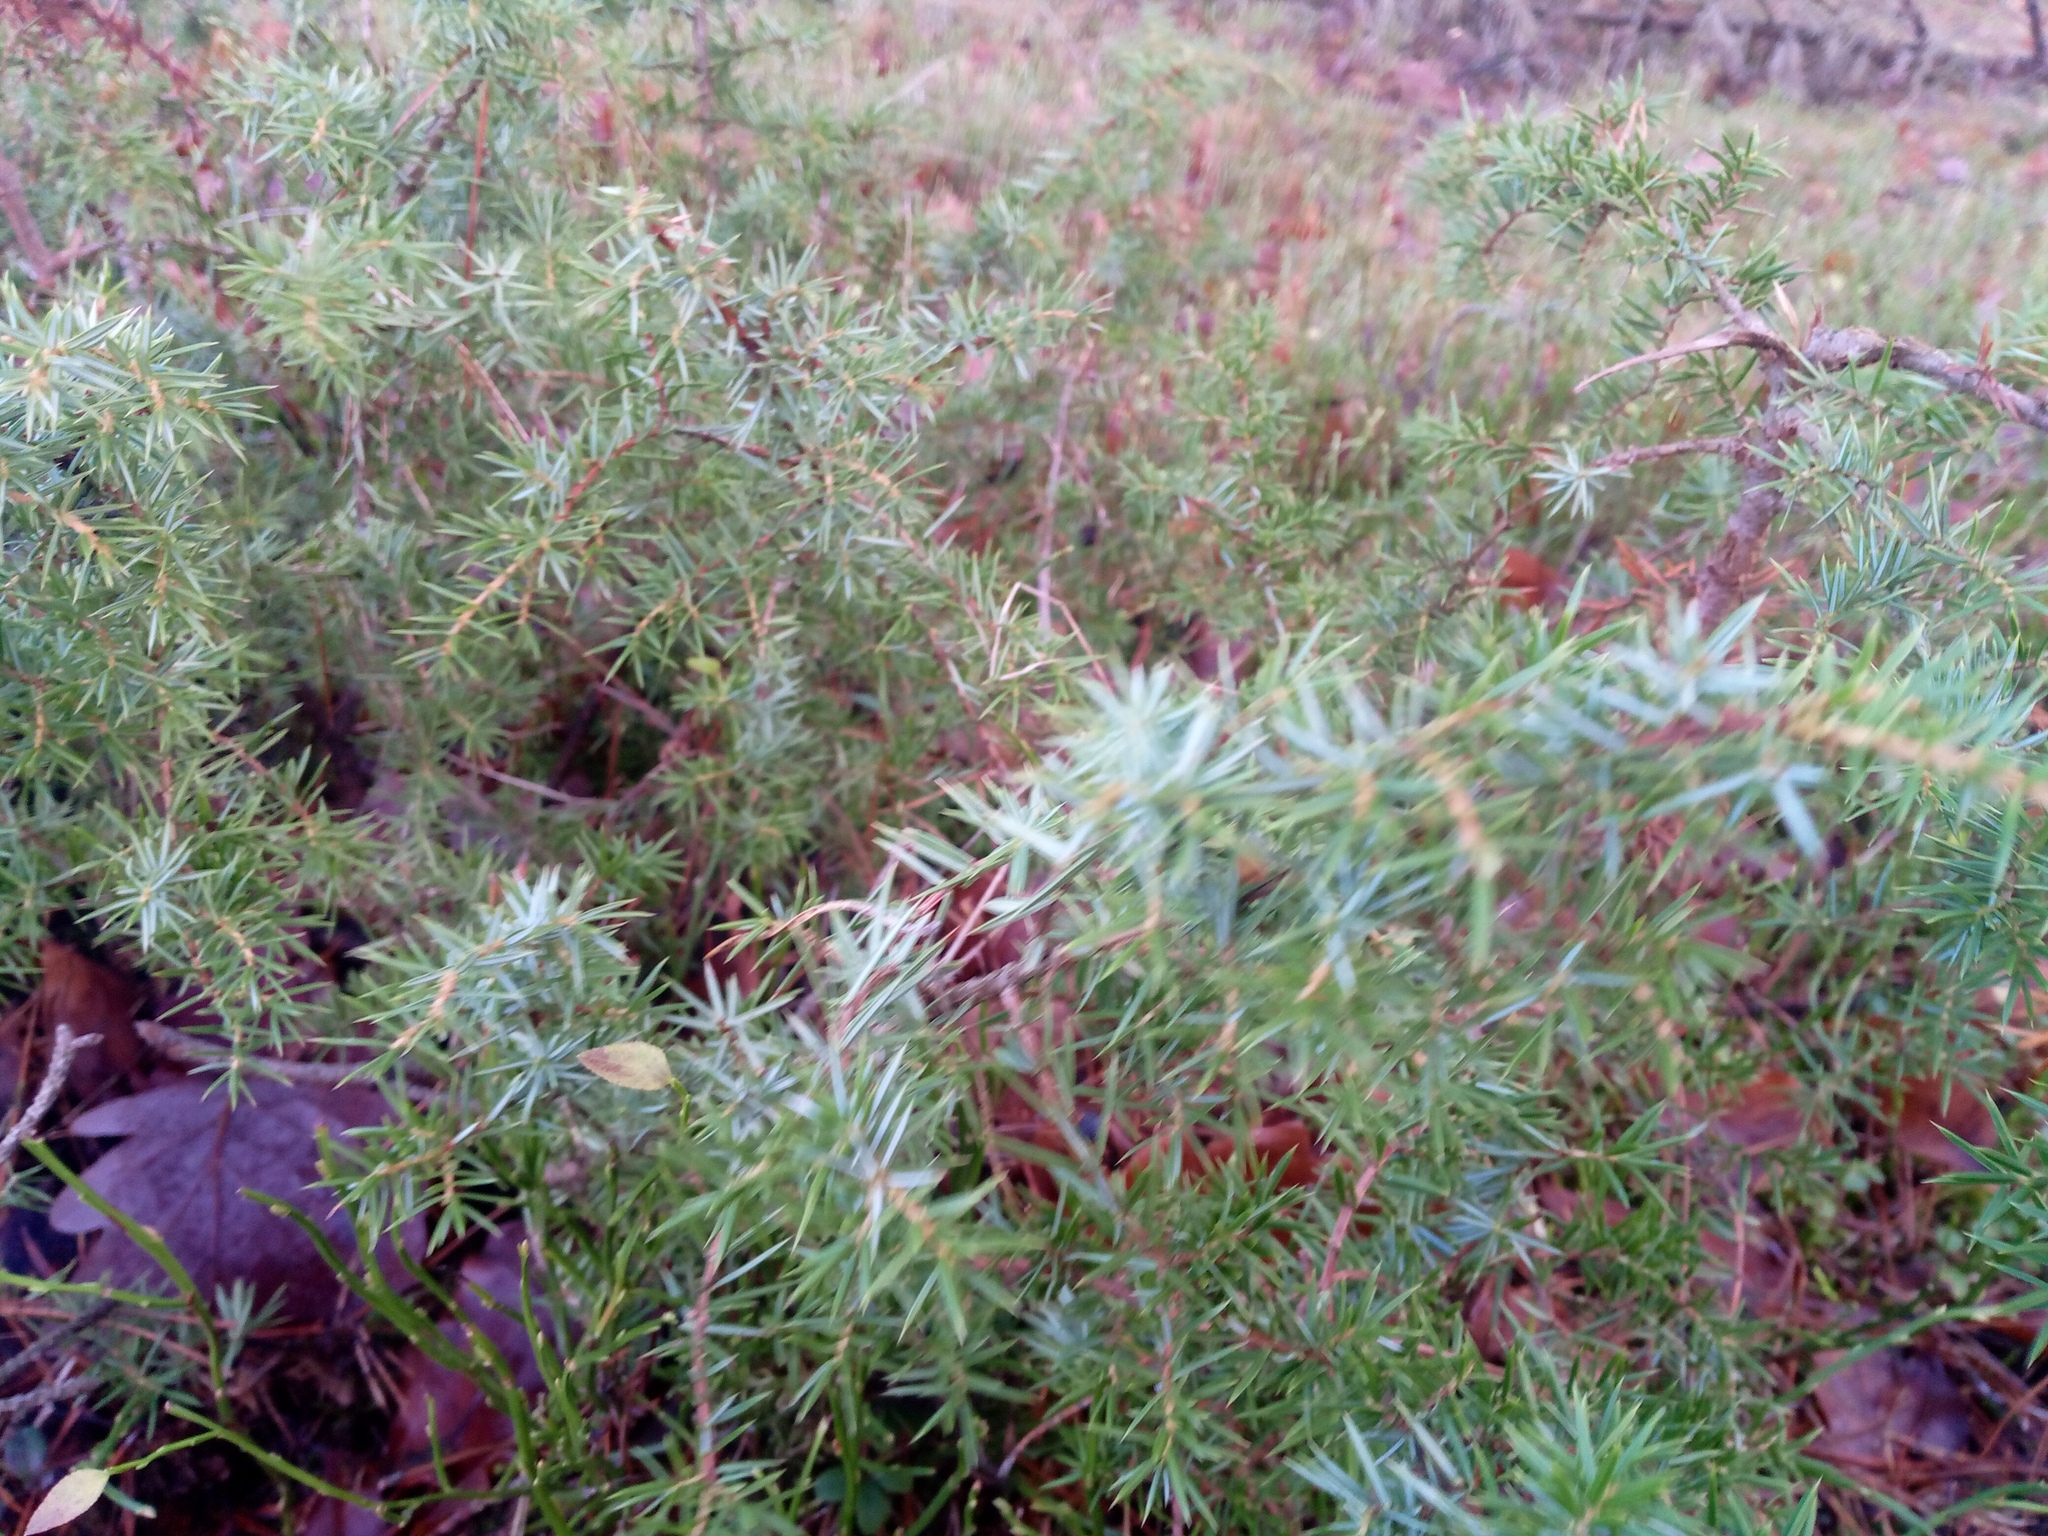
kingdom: Plantae
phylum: Tracheophyta
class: Pinopsida
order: Pinales
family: Cupressaceae
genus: Juniperus
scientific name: Juniperus communis
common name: Common juniper
